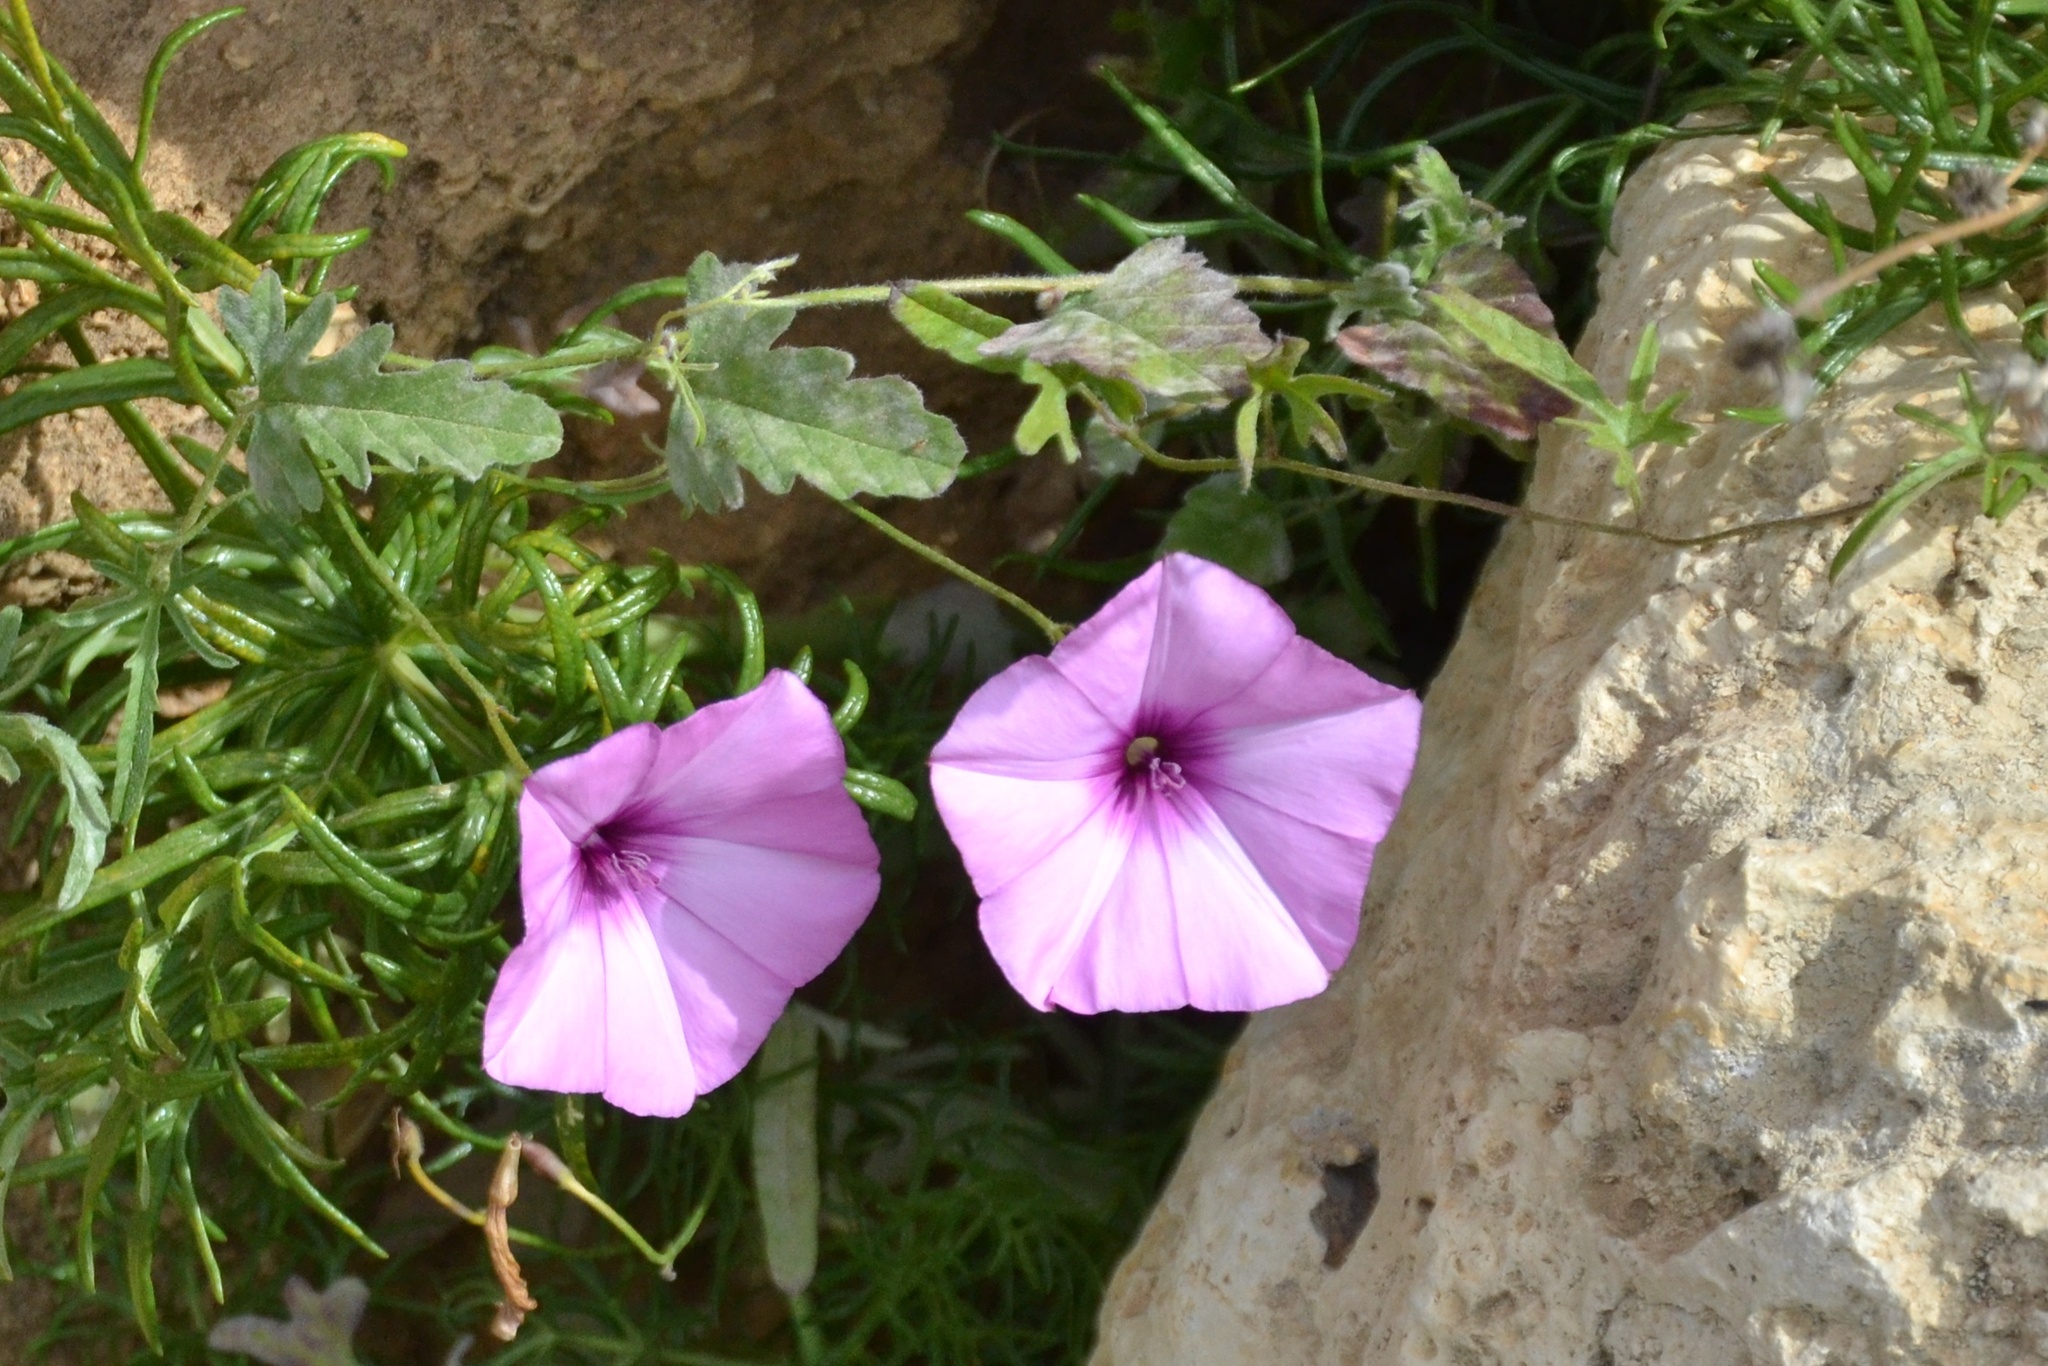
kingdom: Plantae
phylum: Tracheophyta
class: Magnoliopsida
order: Solanales
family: Convolvulaceae
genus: Convolvulus
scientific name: Convolvulus althaeoides
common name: Mallow bindweed
